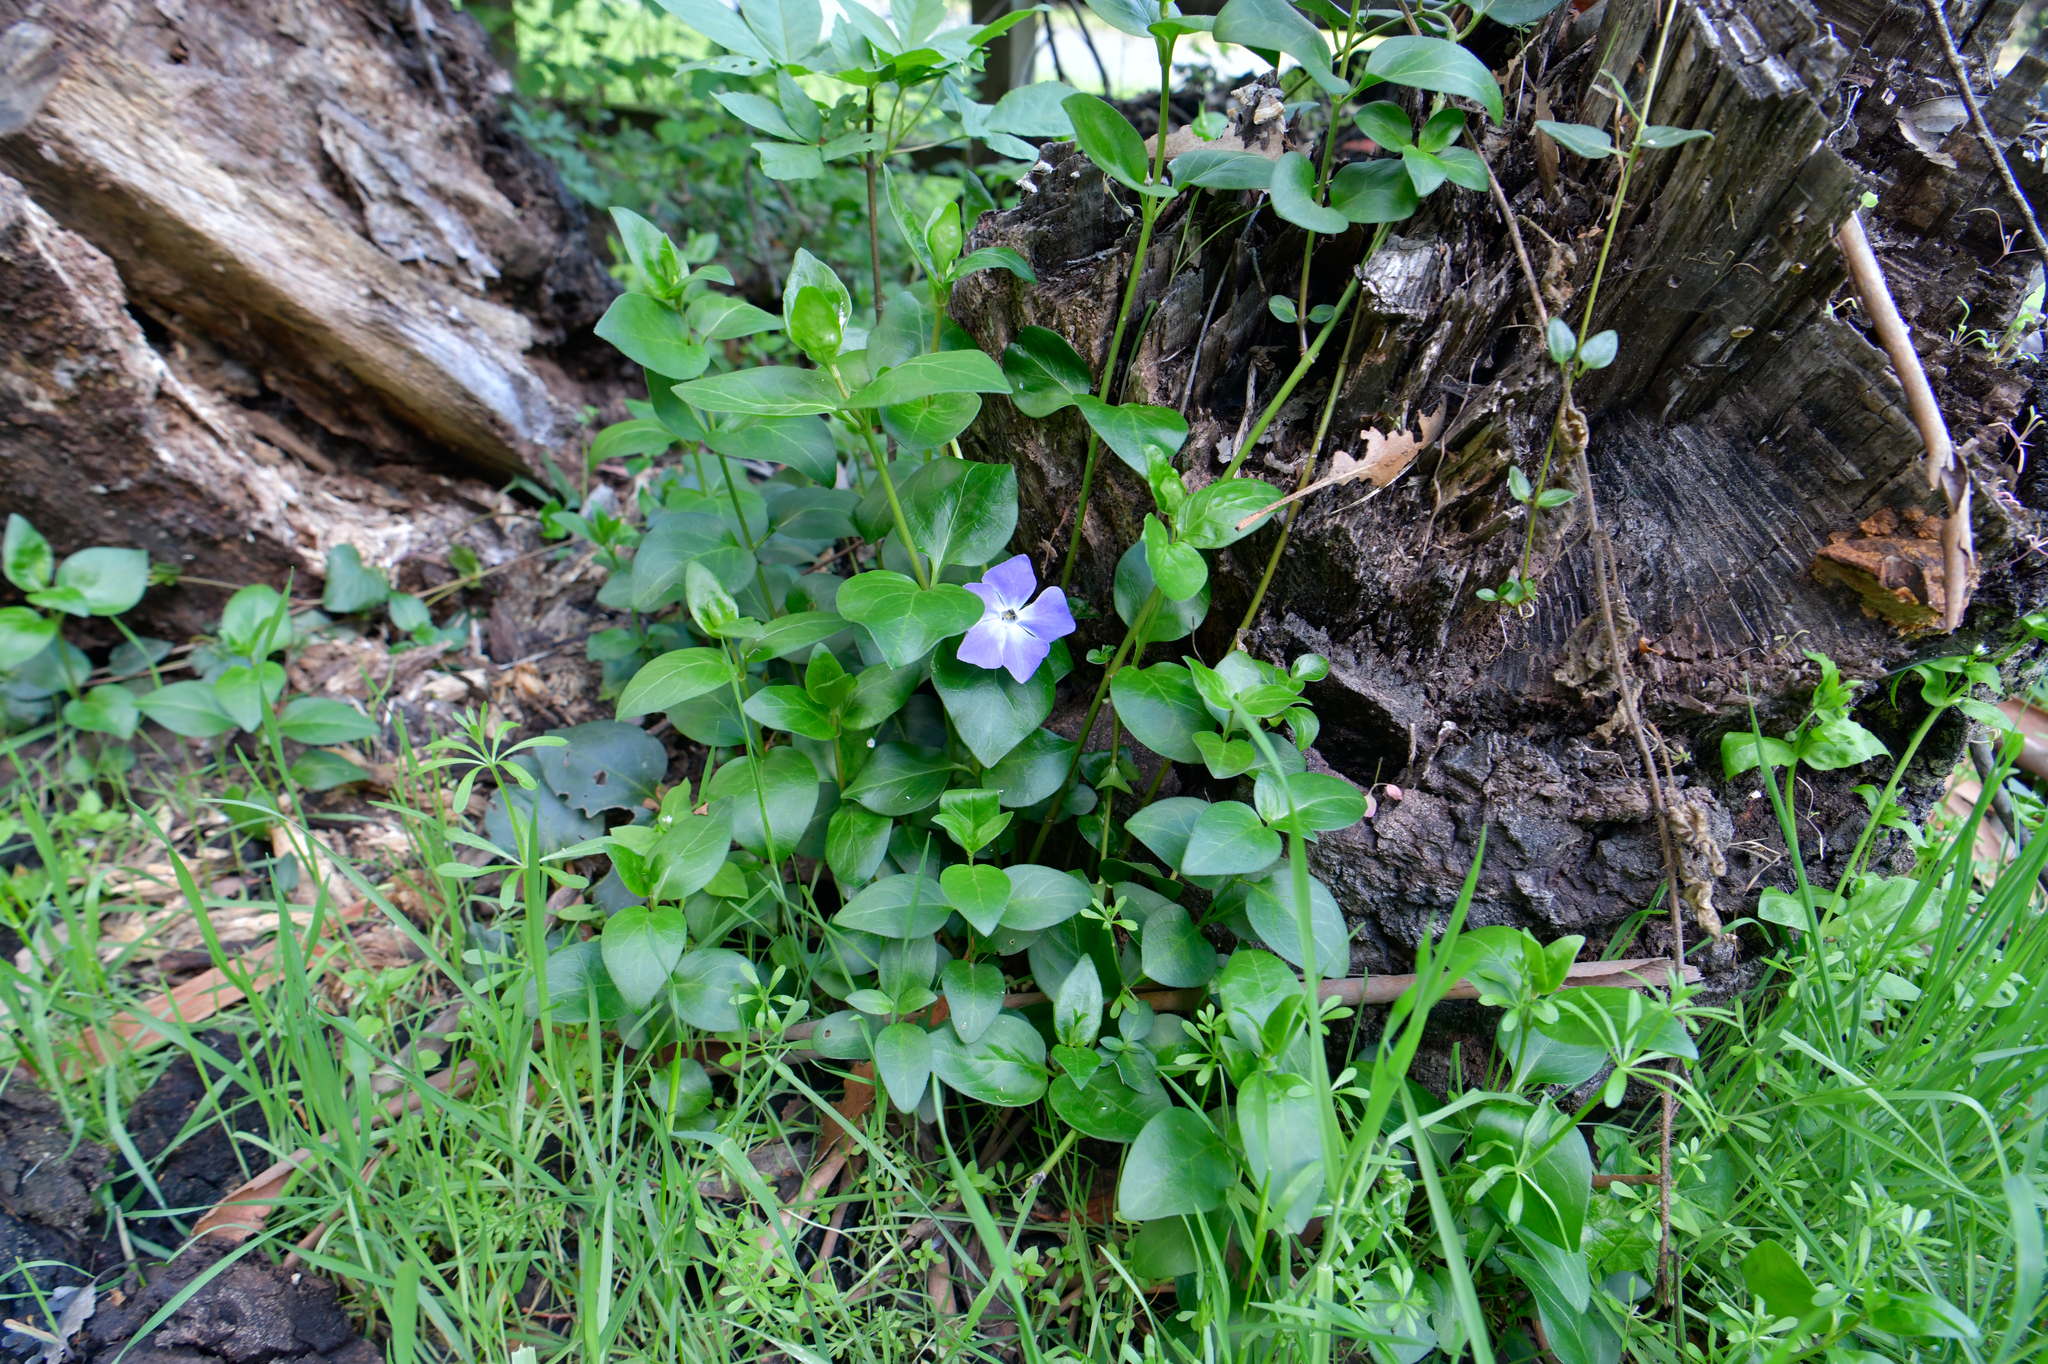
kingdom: Plantae
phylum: Tracheophyta
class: Magnoliopsida
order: Gentianales
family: Apocynaceae
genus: Vinca
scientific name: Vinca major
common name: Greater periwinkle
